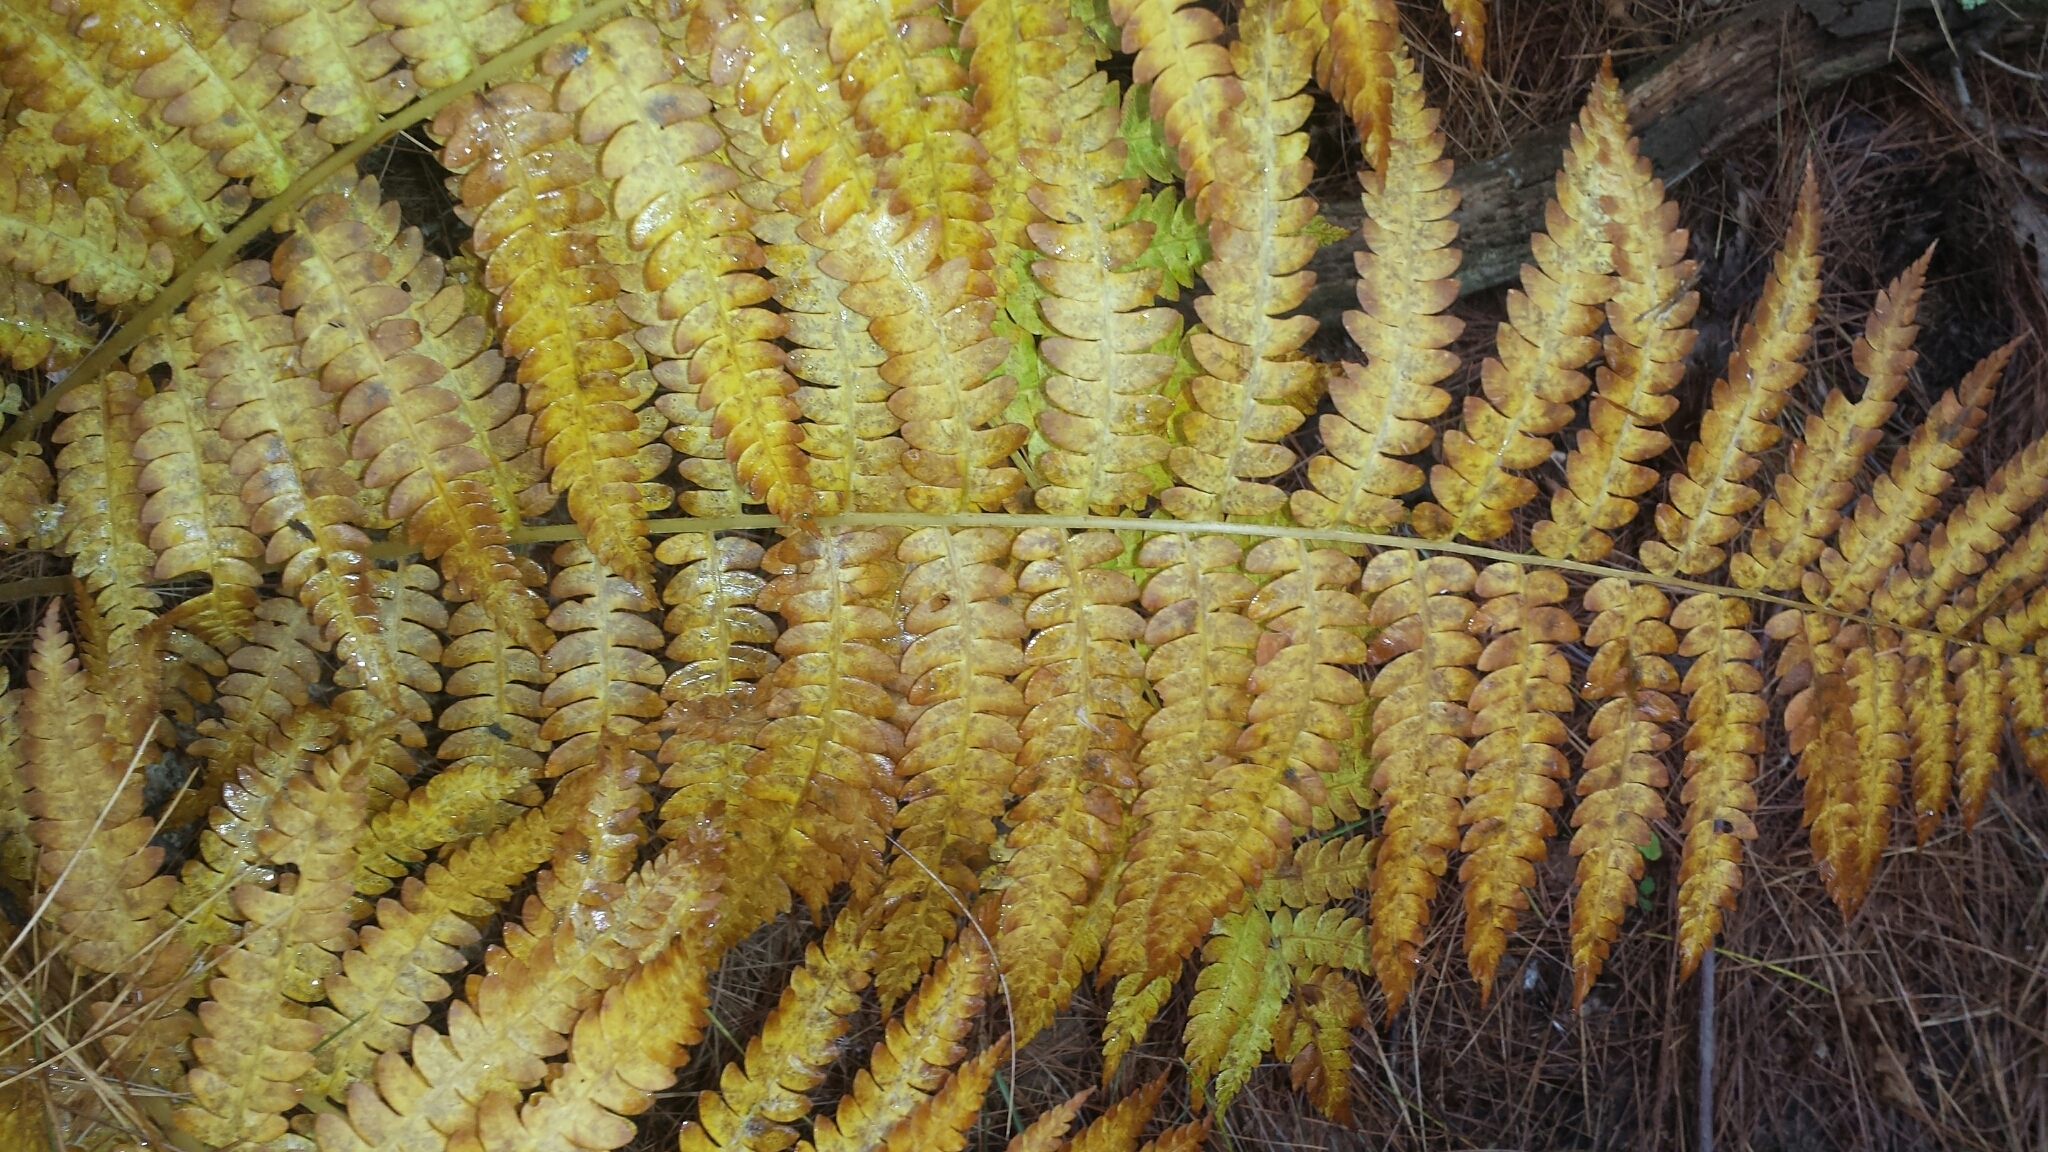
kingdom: Plantae
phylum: Tracheophyta
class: Polypodiopsida
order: Osmundales
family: Osmundaceae
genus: Osmundastrum
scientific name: Osmundastrum cinnamomeum
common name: Cinnamon fern
